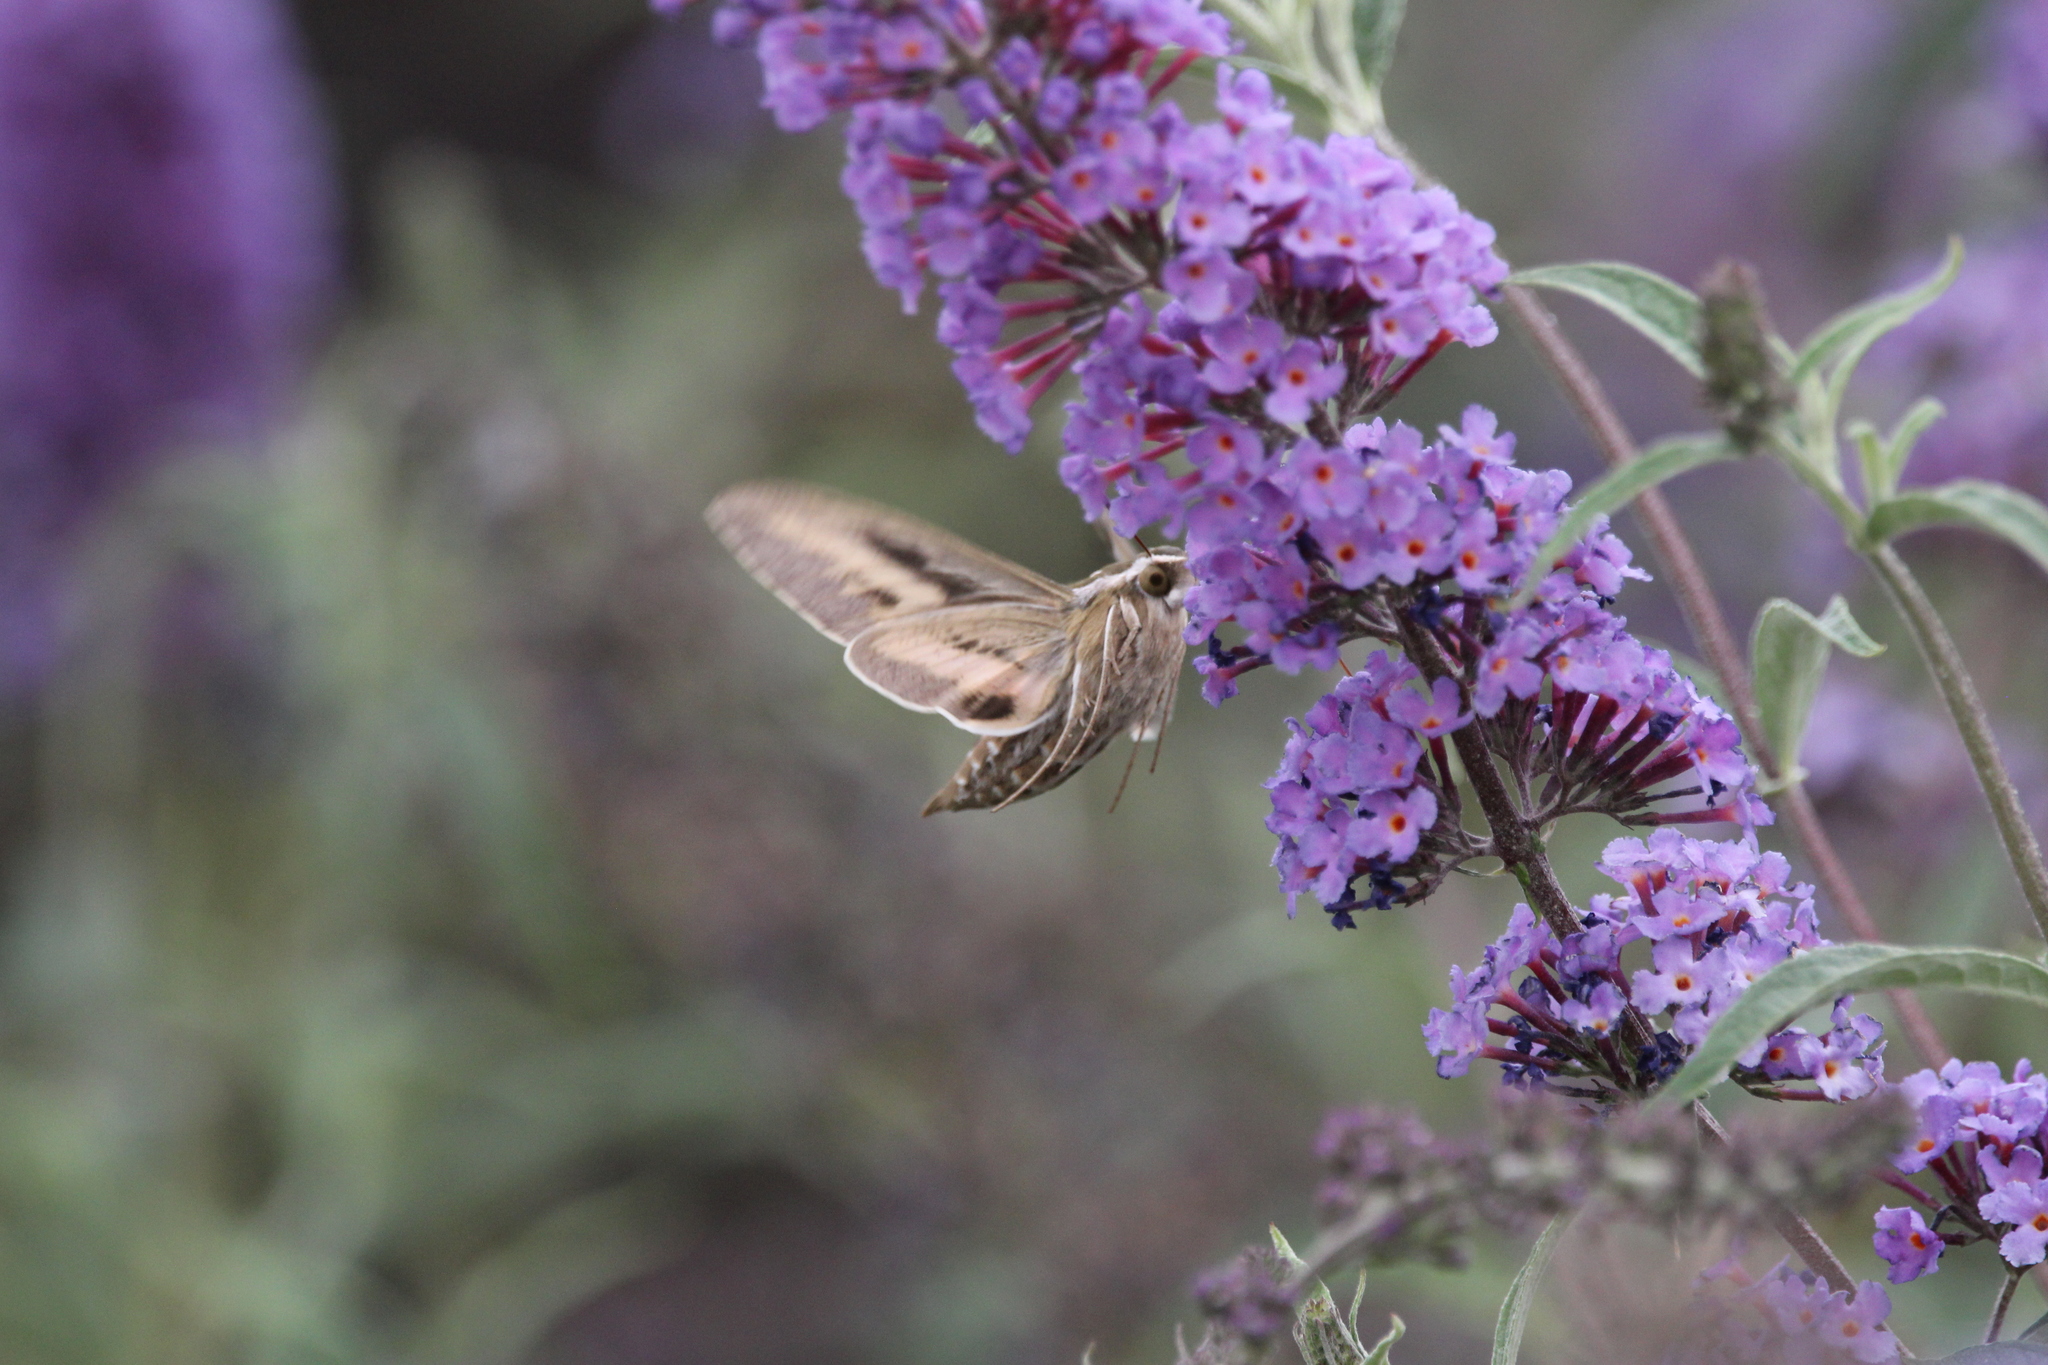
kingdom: Animalia
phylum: Arthropoda
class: Insecta
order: Lepidoptera
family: Sphingidae
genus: Hyles
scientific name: Hyles lineata
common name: White-lined sphinx
